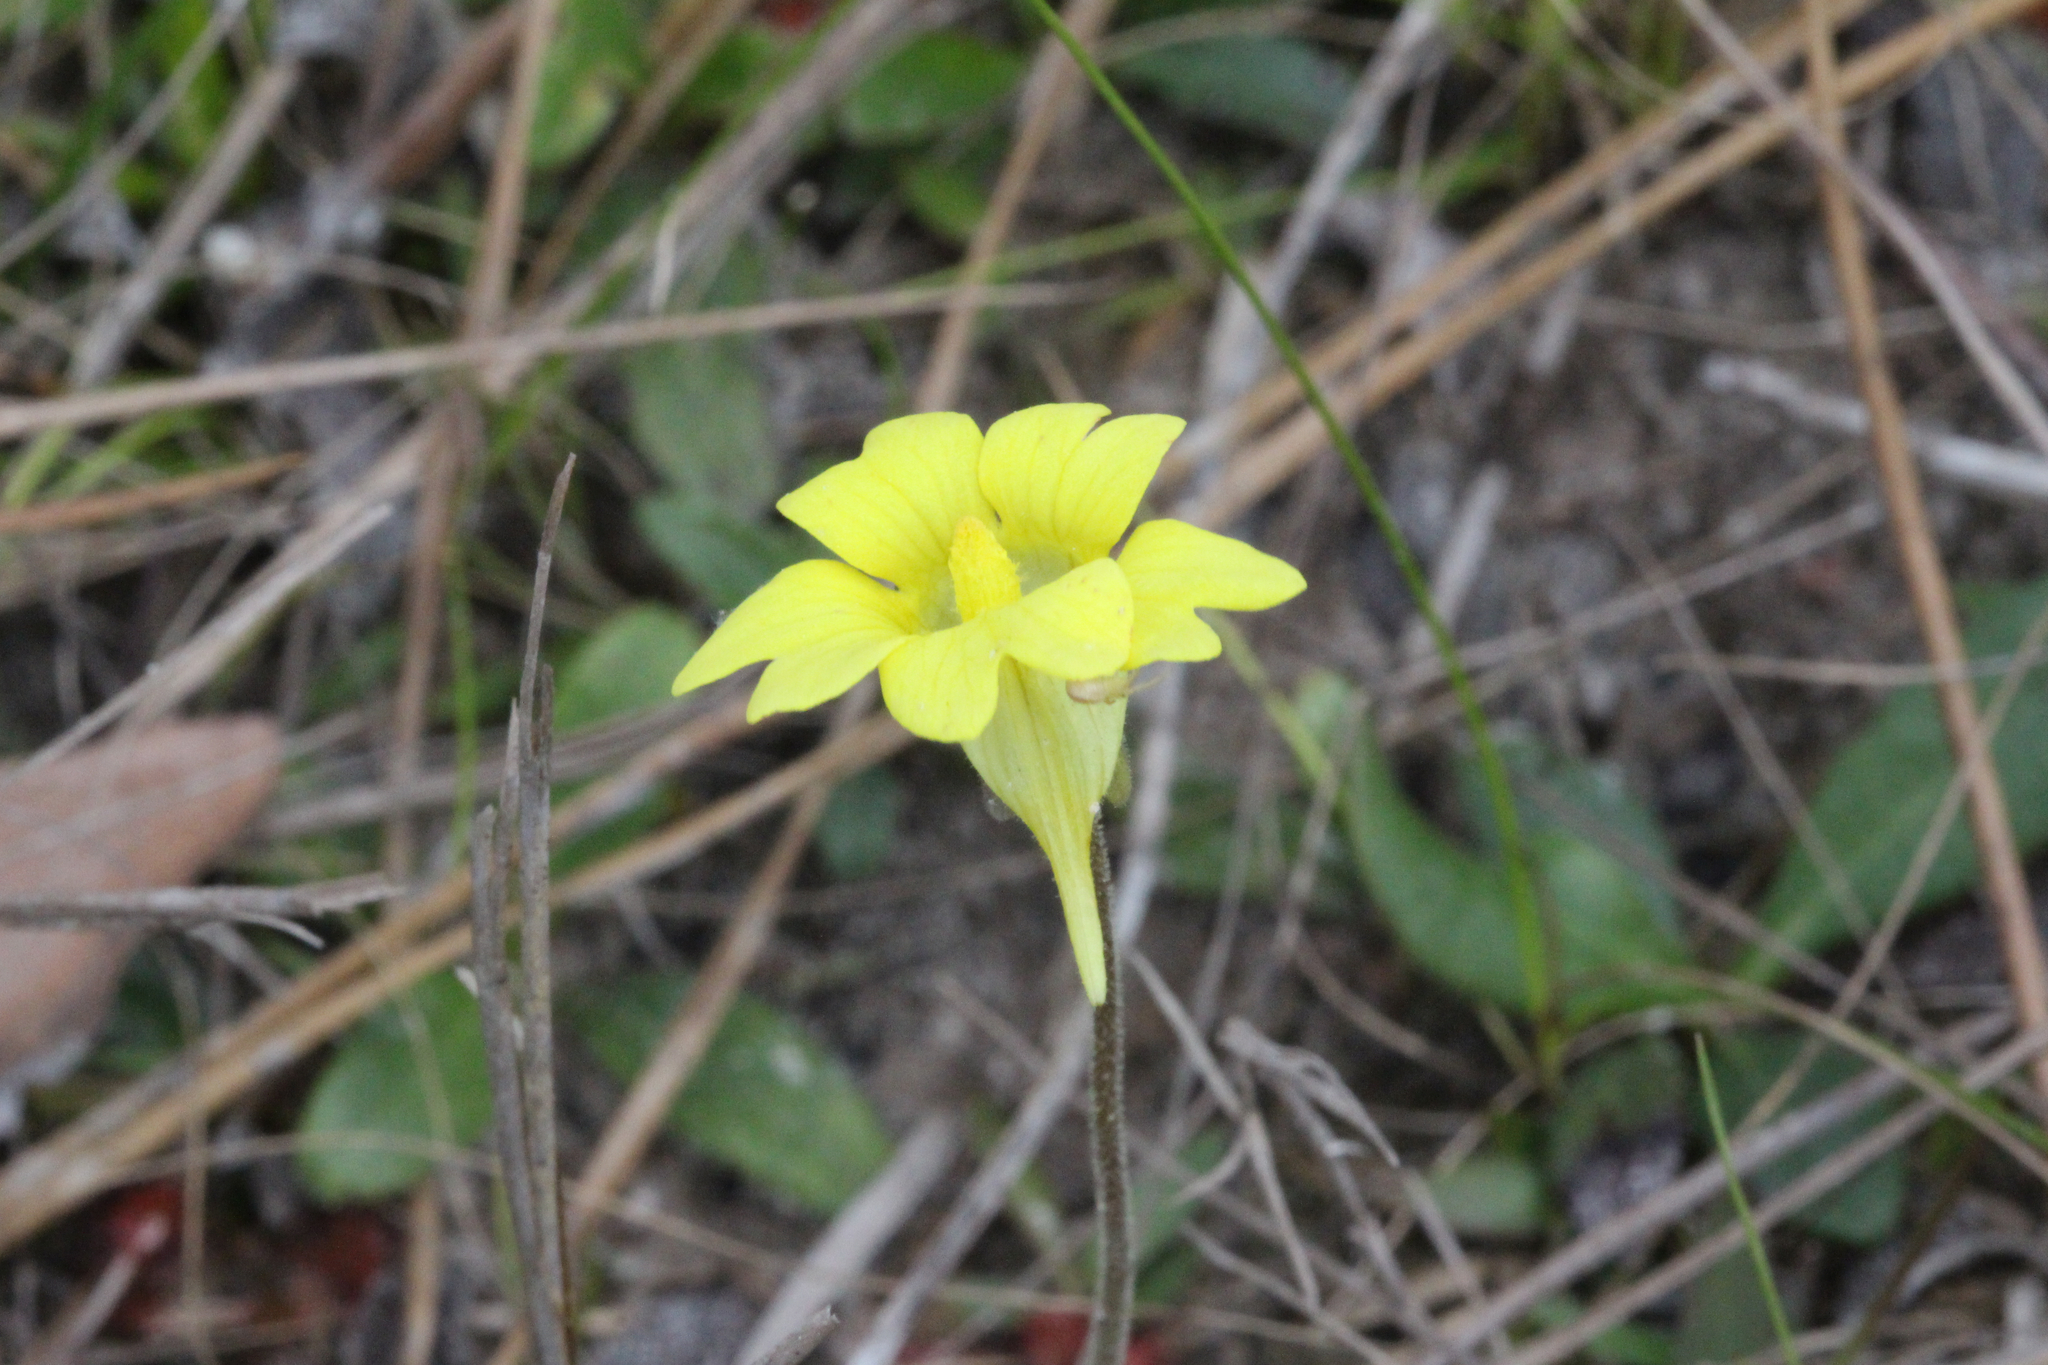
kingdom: Plantae
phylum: Tracheophyta
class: Magnoliopsida
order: Lamiales
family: Lentibulariaceae
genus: Pinguicula
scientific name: Pinguicula lutea
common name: Yellow butterwort
